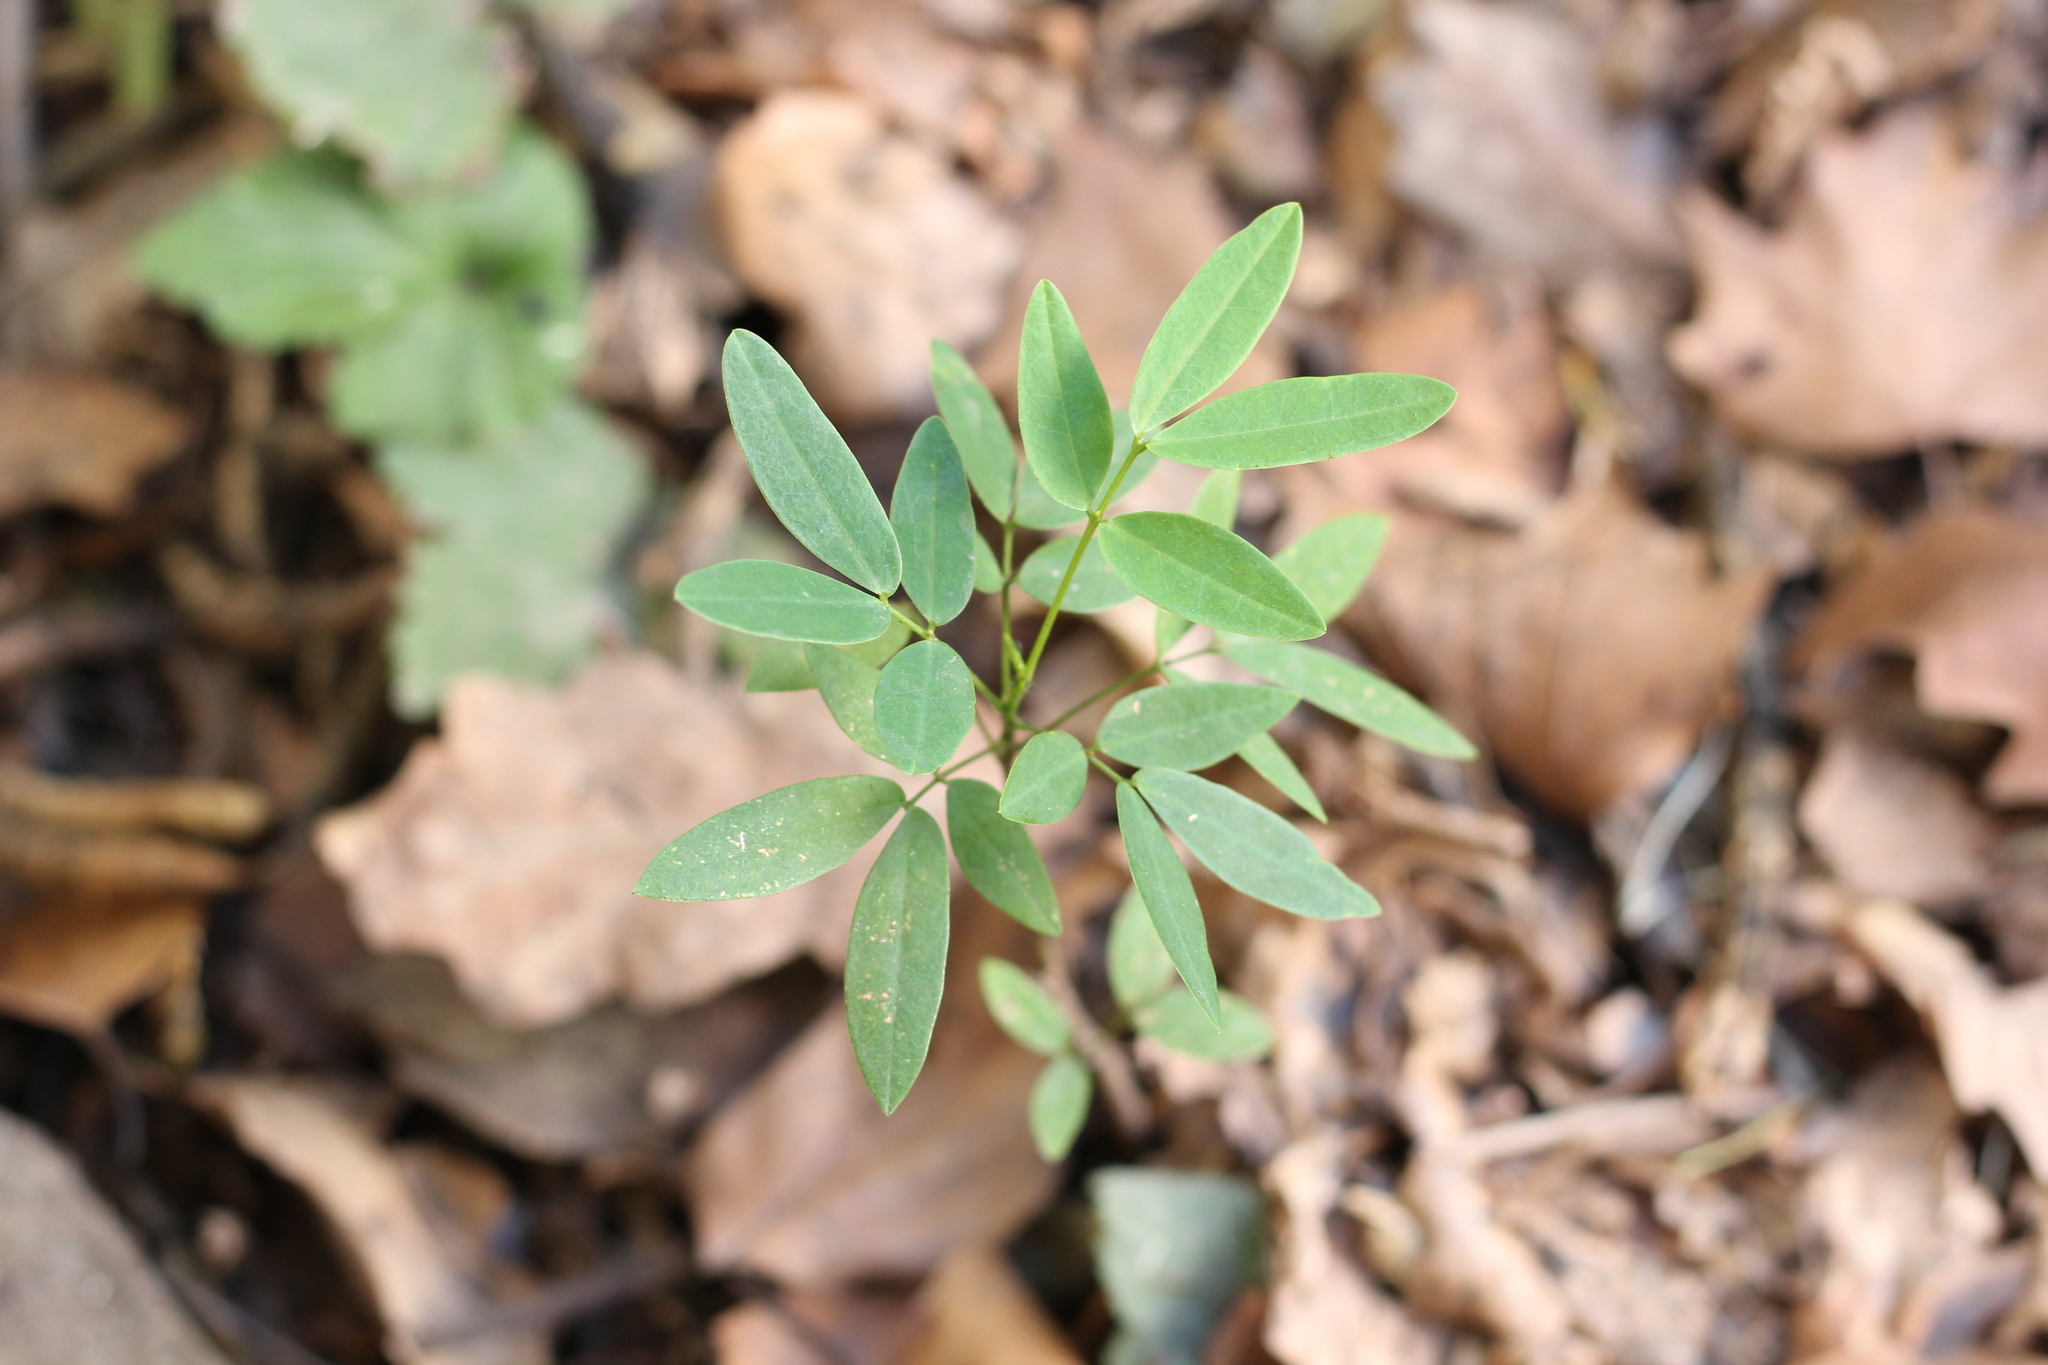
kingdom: Plantae
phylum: Tracheophyta
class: Magnoliopsida
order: Fabales
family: Fabaceae
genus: Senna
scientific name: Senna corymbosa
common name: Argentine senna
